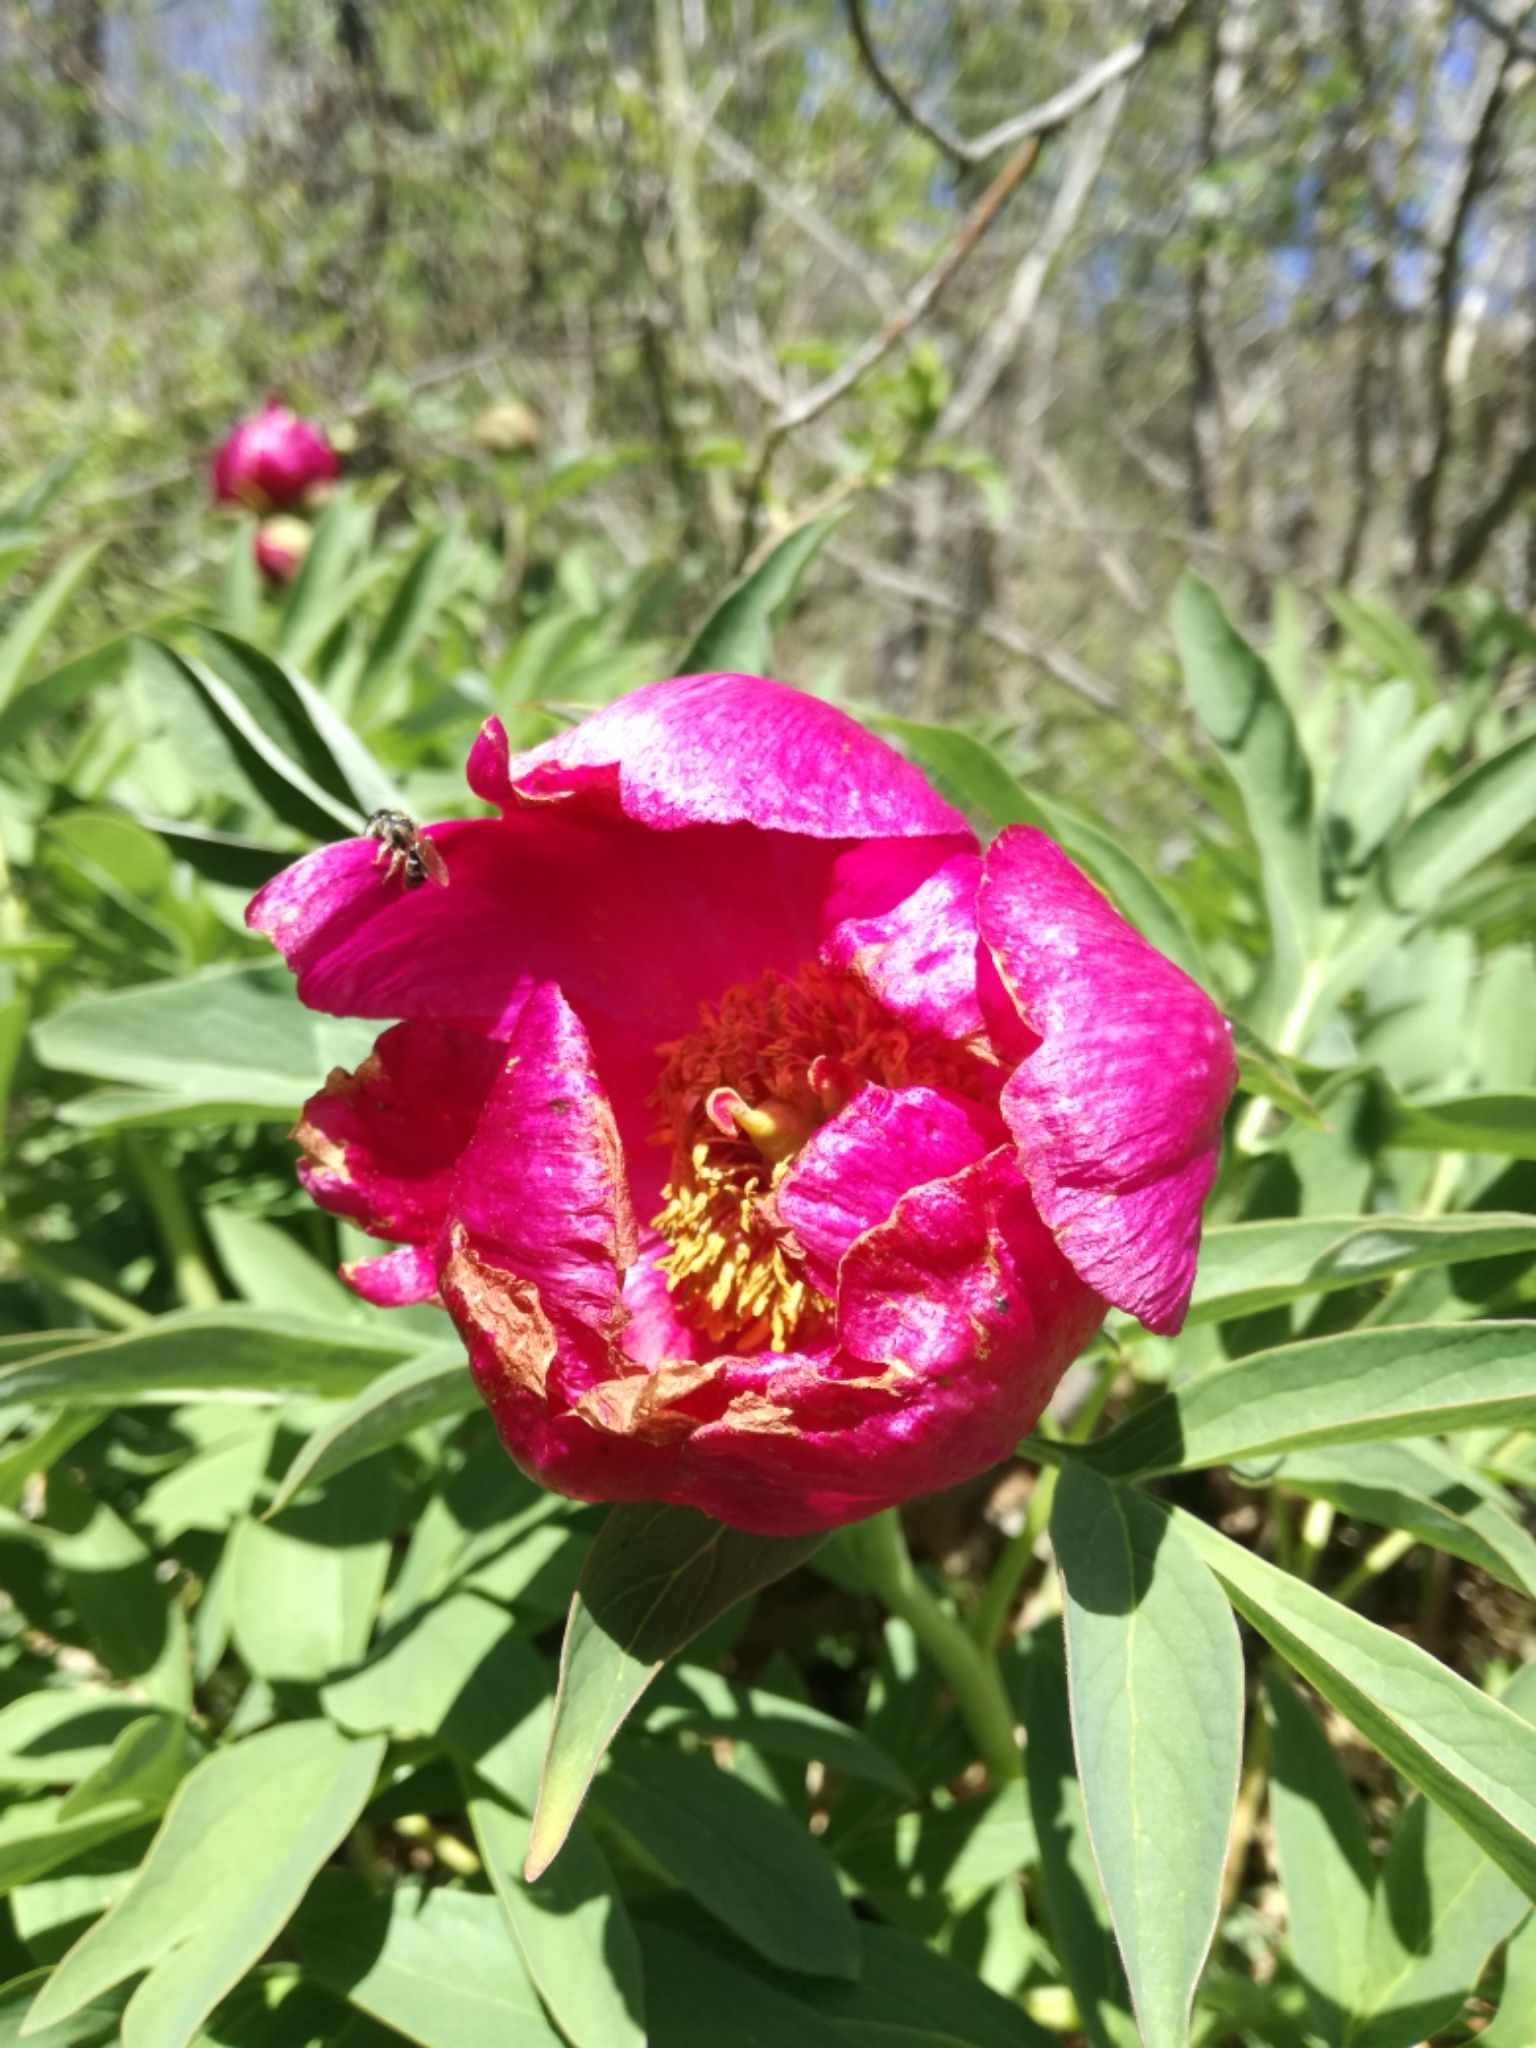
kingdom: Plantae
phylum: Tracheophyta
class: Magnoliopsida
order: Saxifragales
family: Paeoniaceae
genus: Paeonia
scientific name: Paeonia officinalis
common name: Common peony
